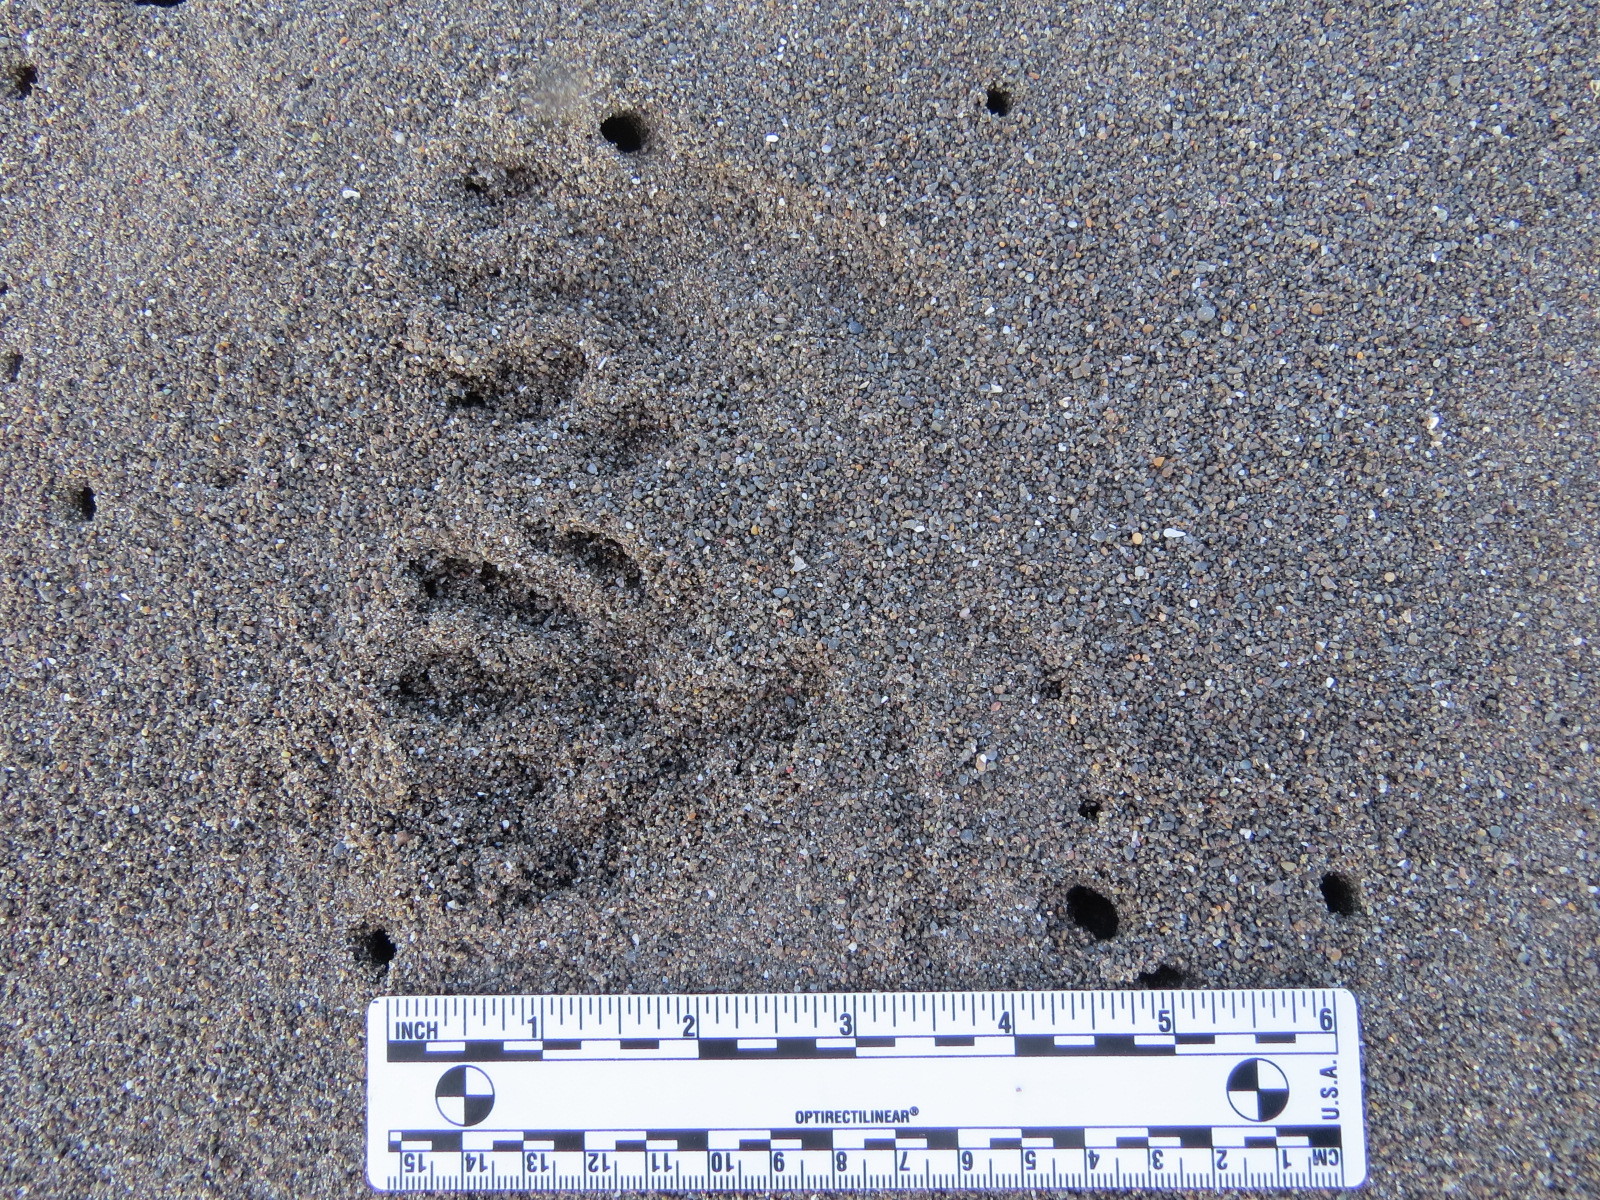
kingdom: Animalia
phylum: Chordata
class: Mammalia
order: Carnivora
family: Procyonidae
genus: Procyon
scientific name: Procyon lotor
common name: Raccoon
